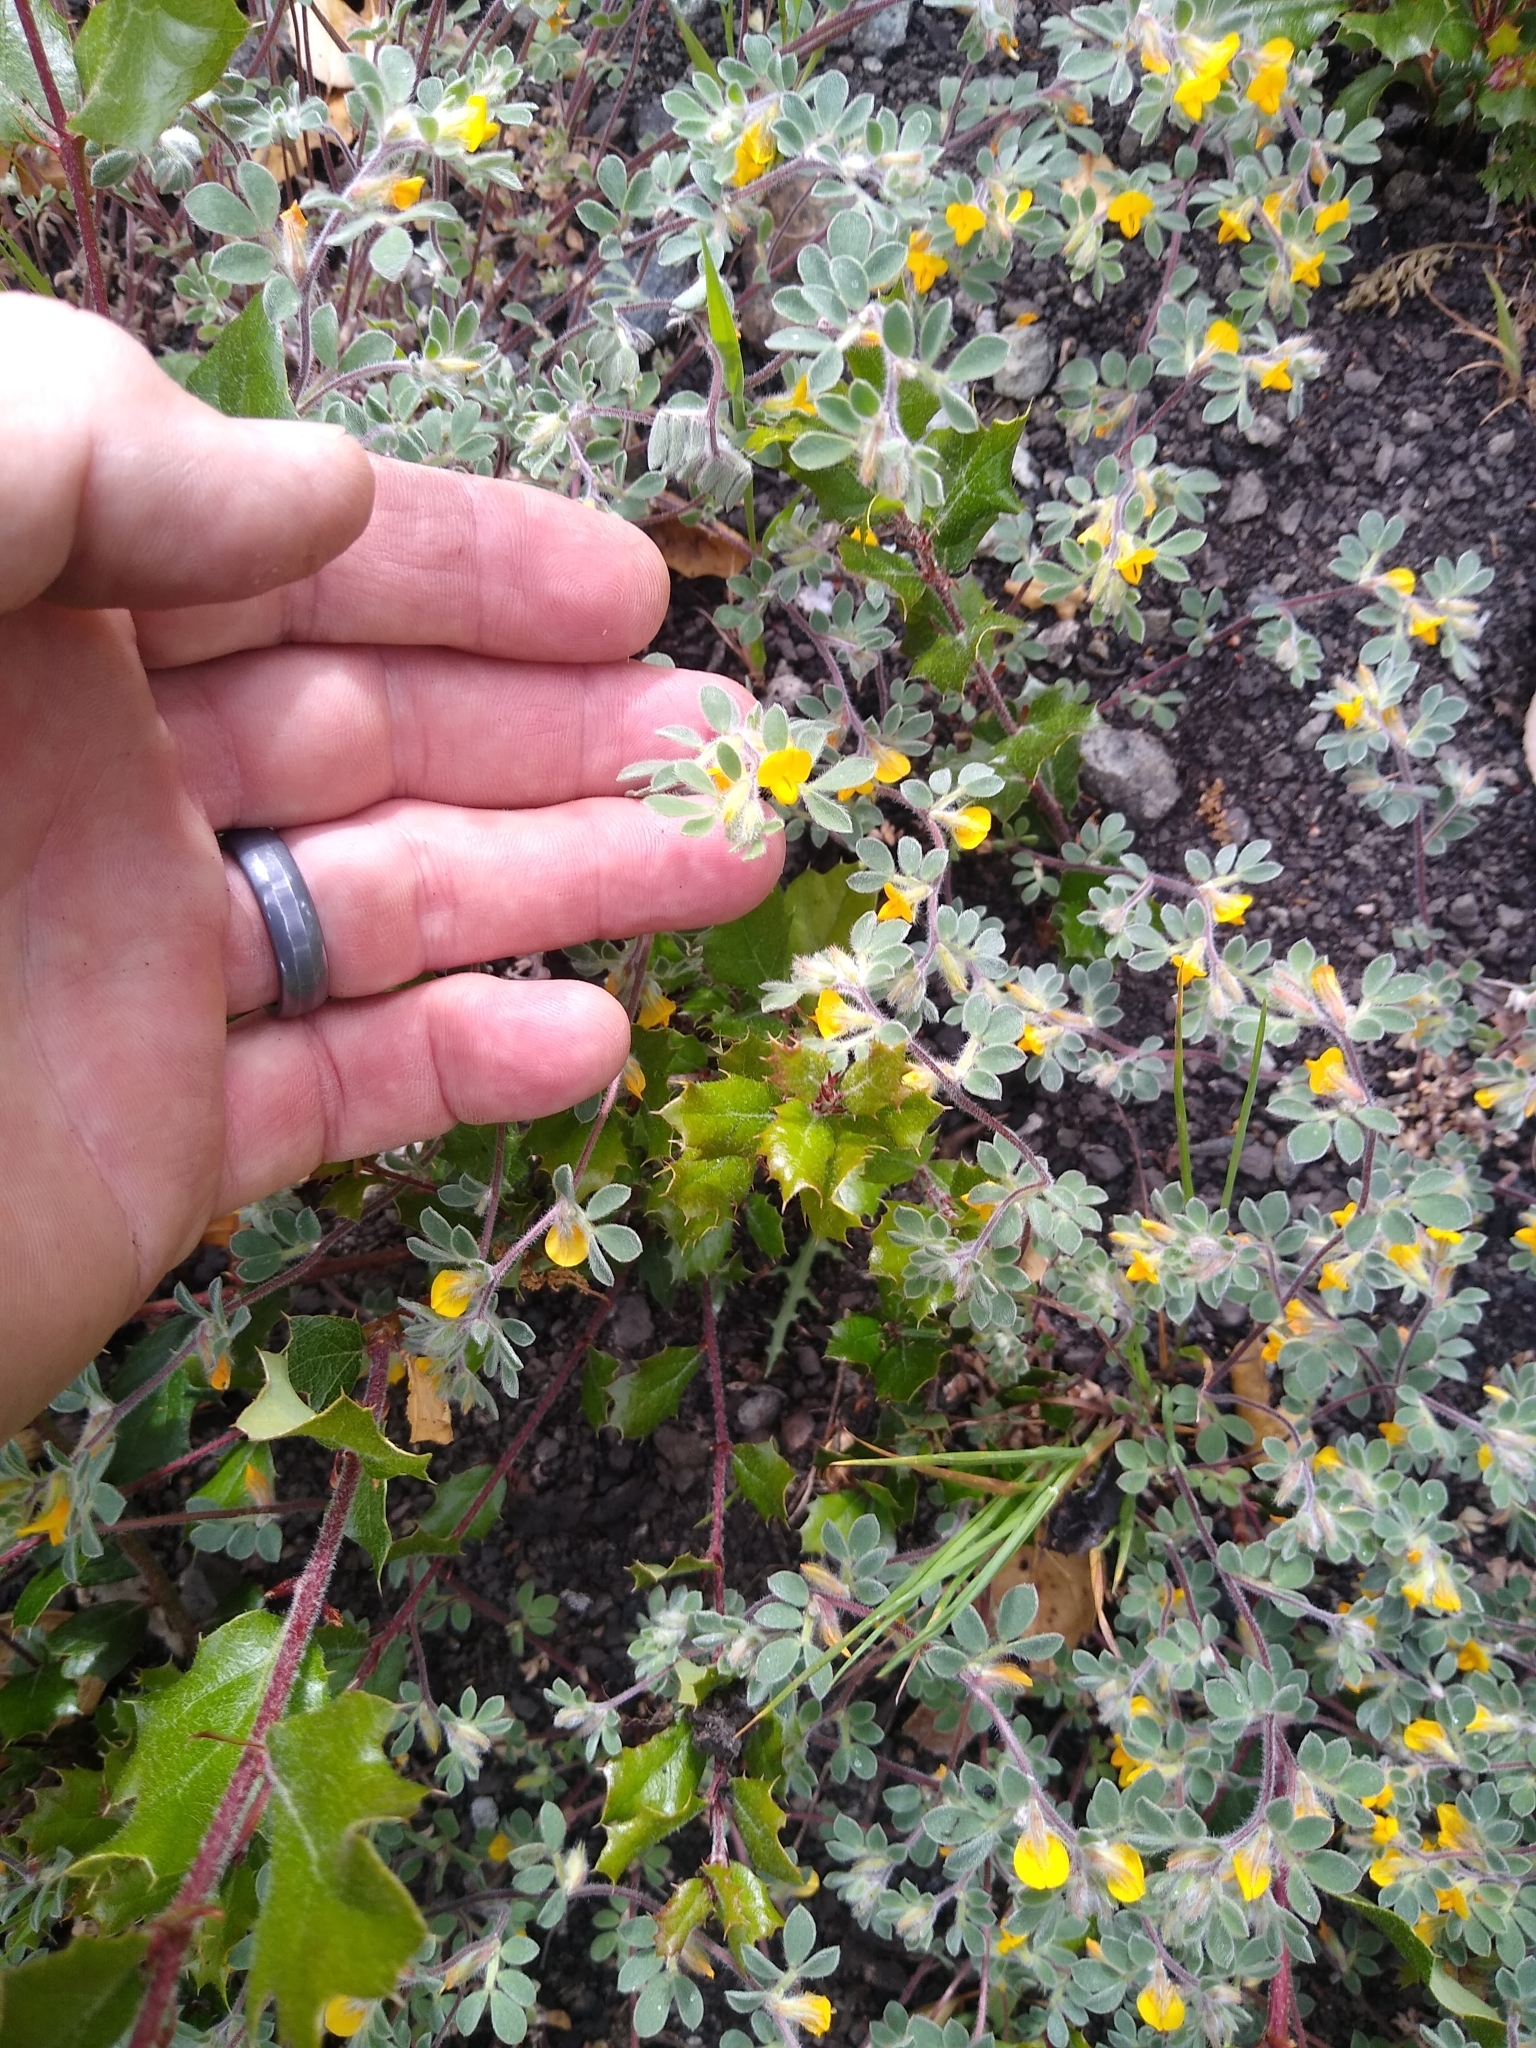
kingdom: Plantae
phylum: Tracheophyta
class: Magnoliopsida
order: Fabales
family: Fabaceae
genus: Acmispon
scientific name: Acmispon brachycarpus
